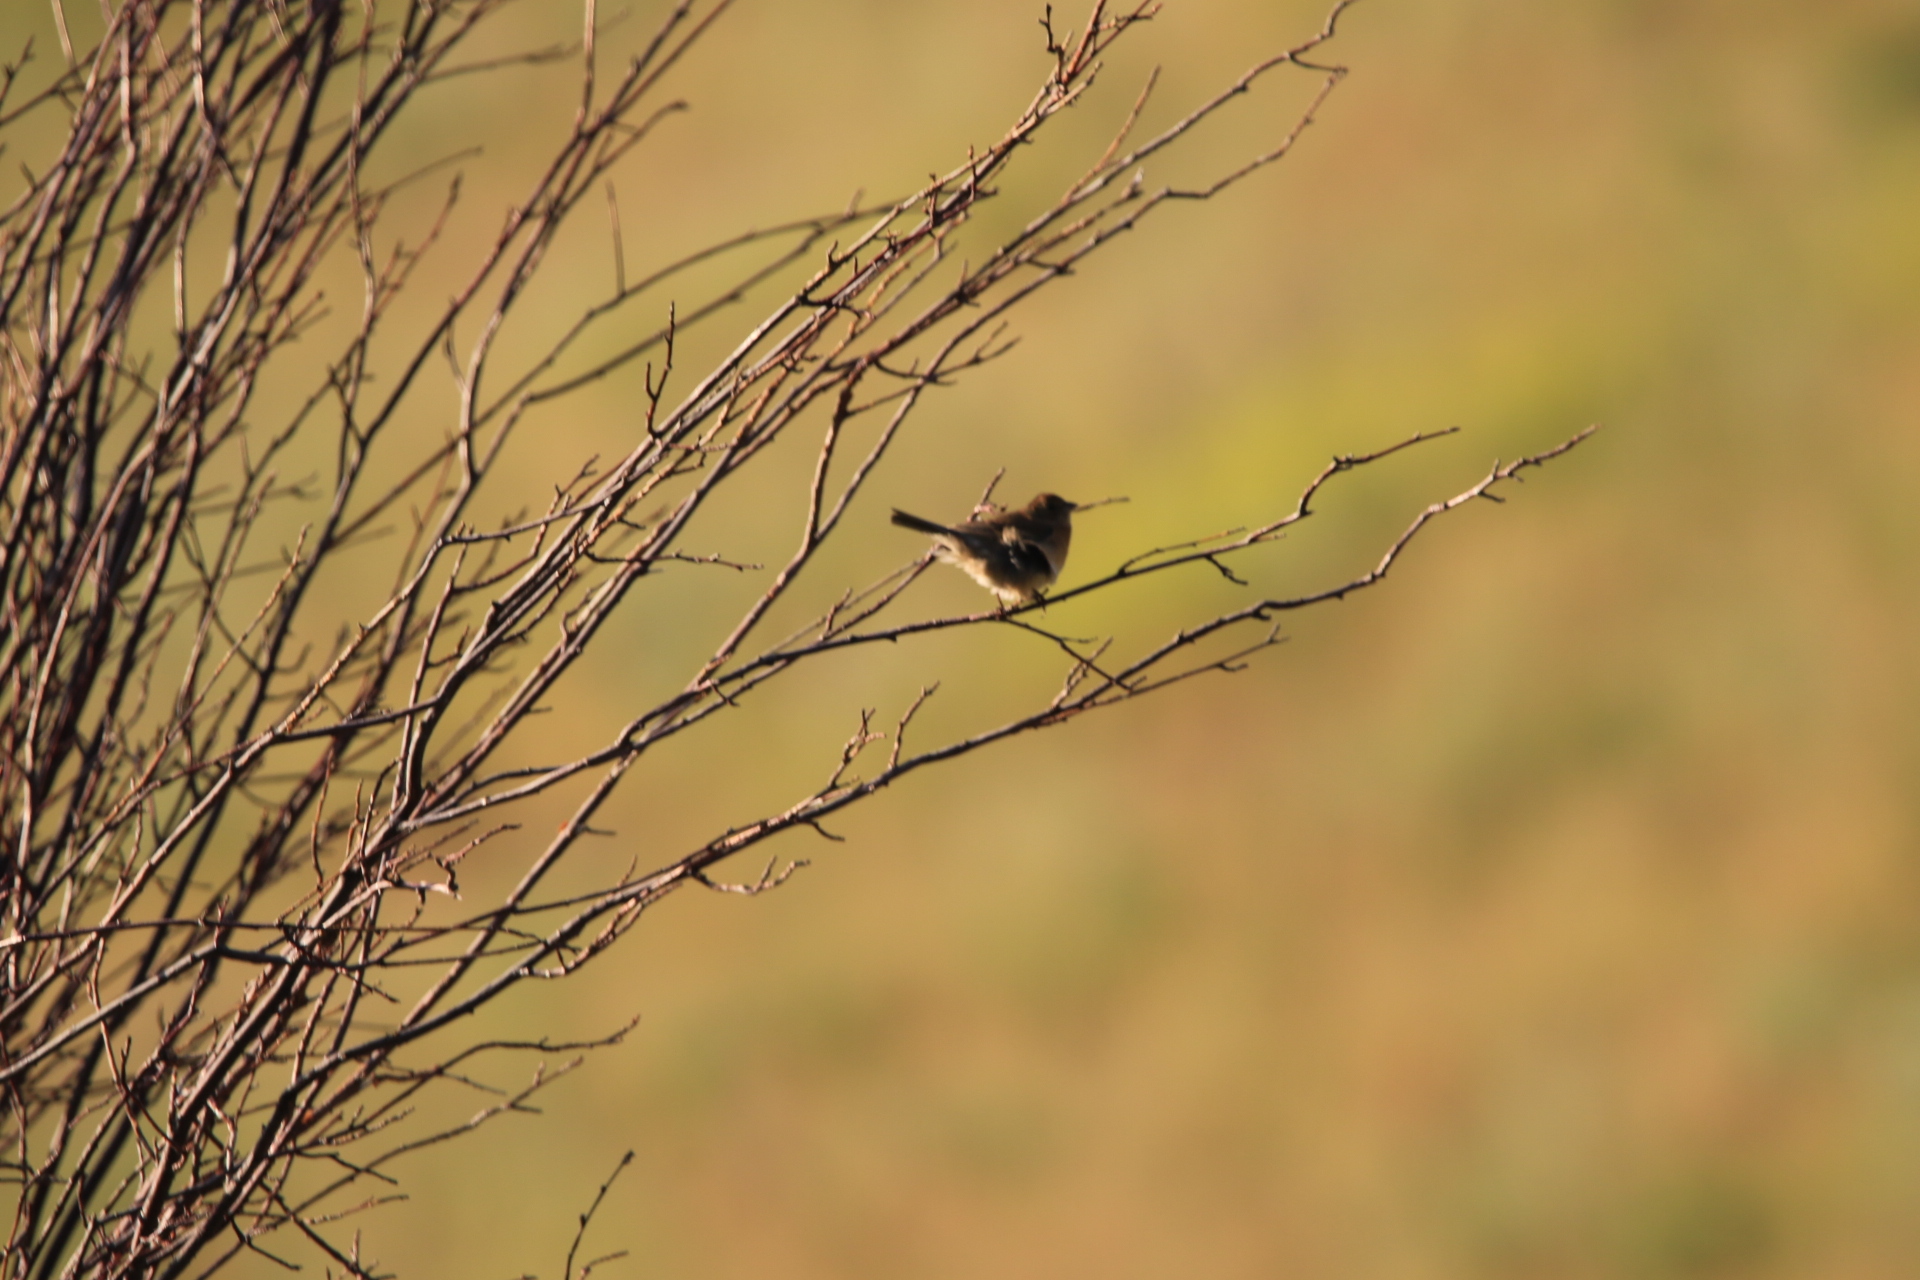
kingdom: Animalia
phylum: Chordata
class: Aves
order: Passeriformes
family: Hirundinidae
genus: Tachycineta
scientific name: Tachycineta thalassina
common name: Violet-green swallow
